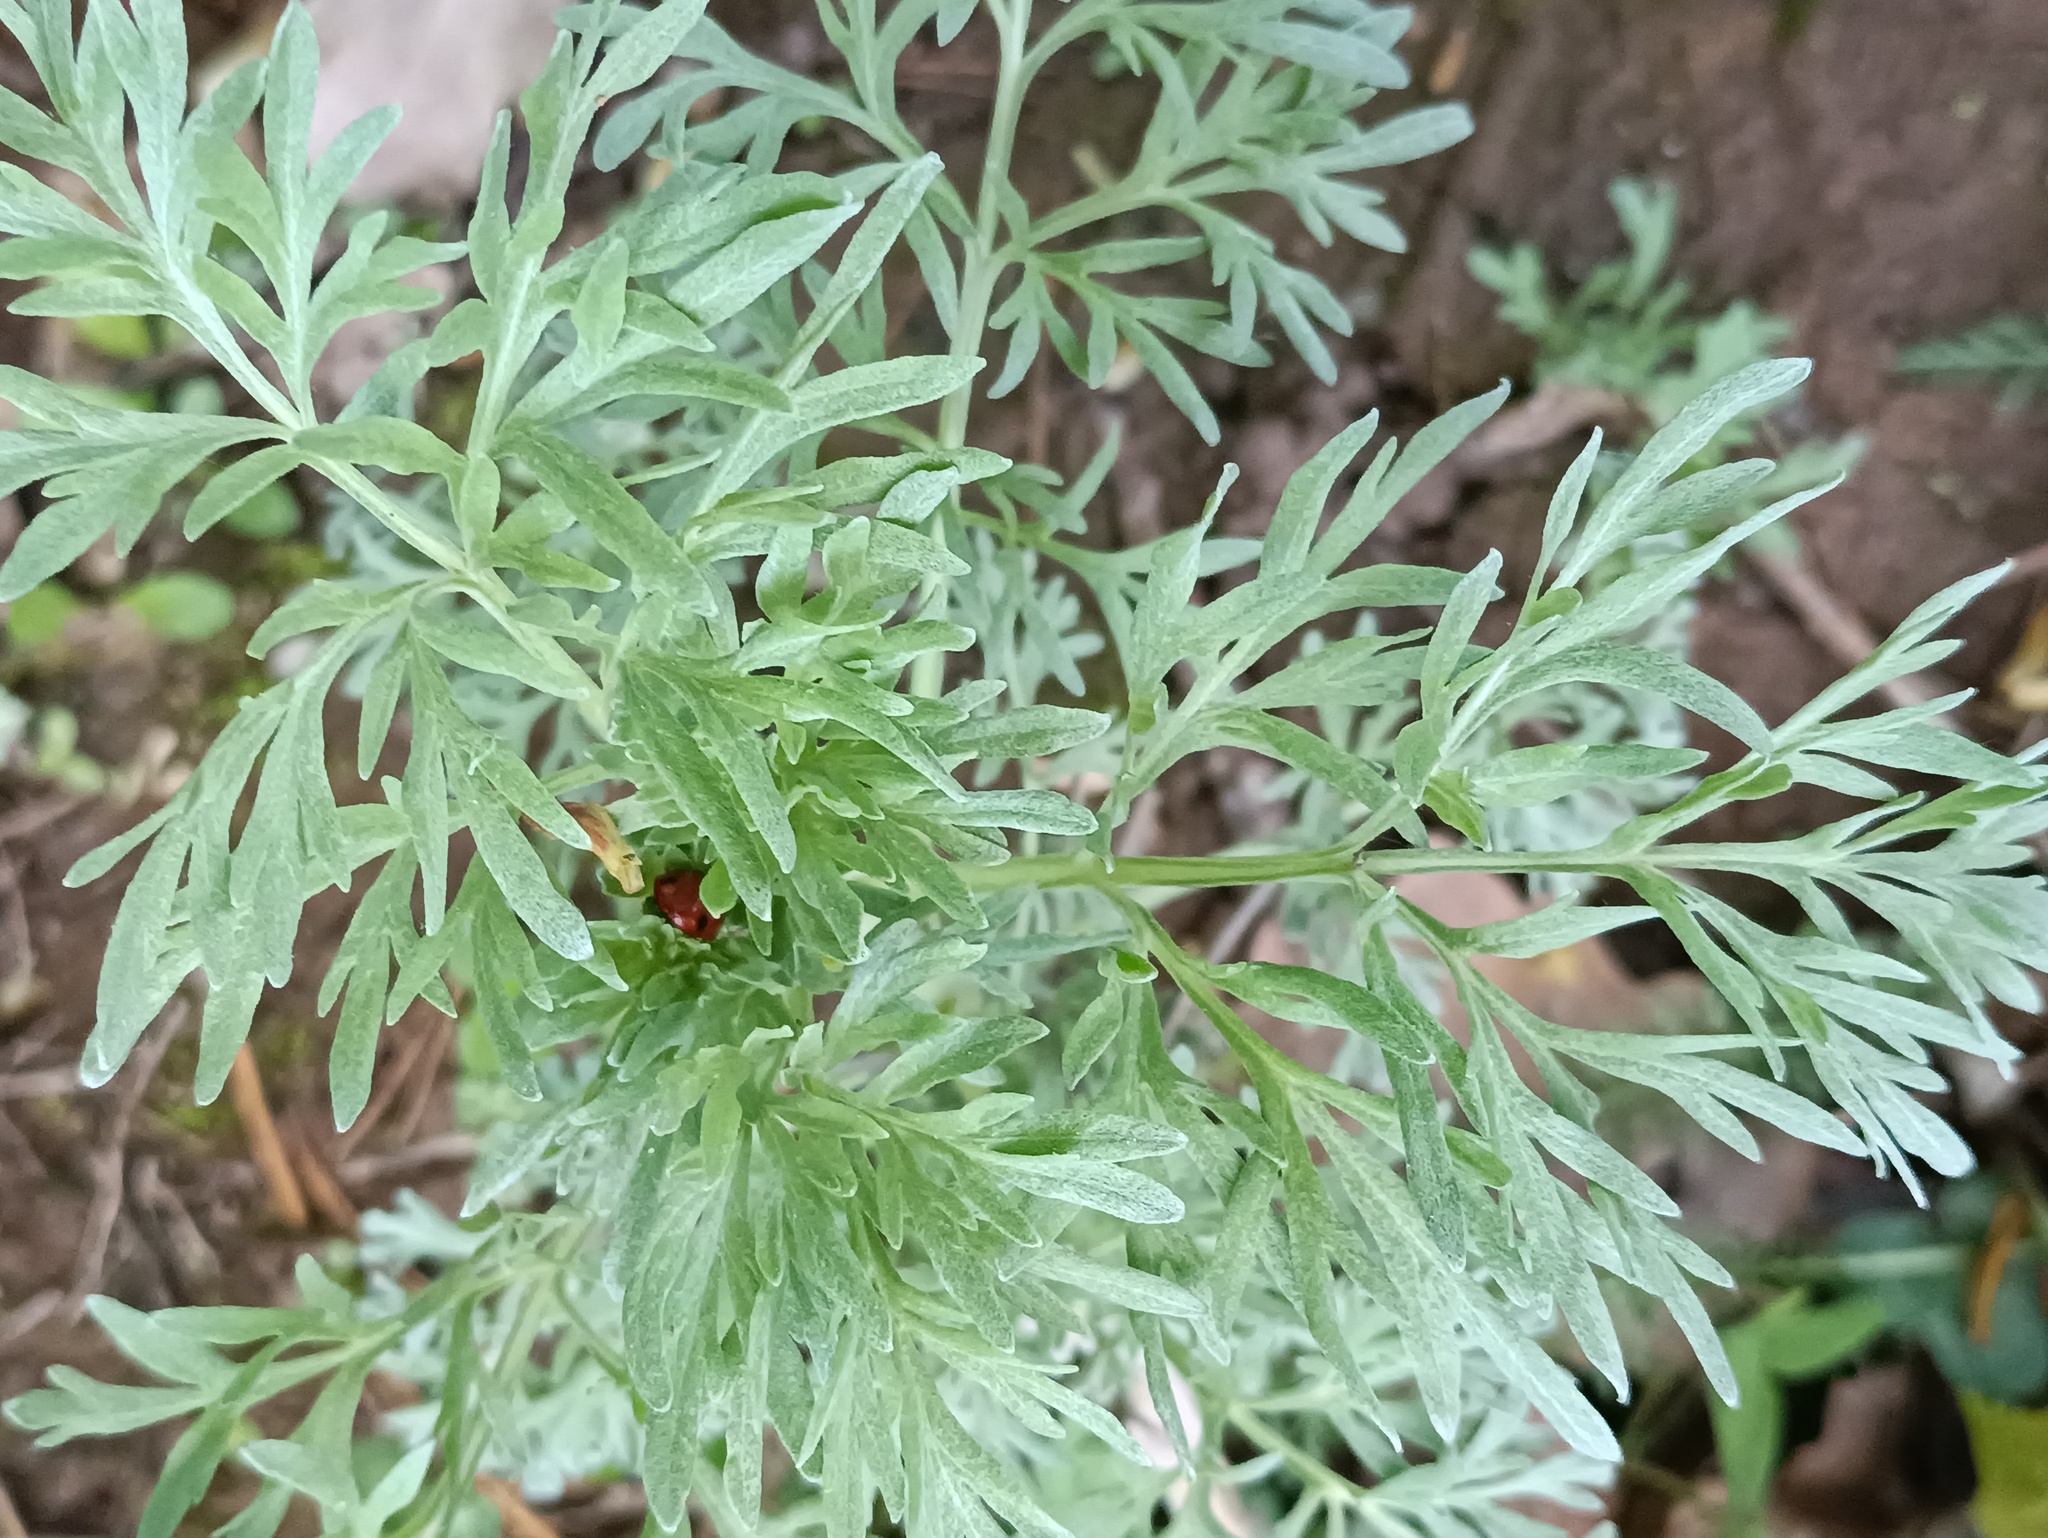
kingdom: Plantae
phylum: Tracheophyta
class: Magnoliopsida
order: Asterales
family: Asteraceae
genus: Artemisia
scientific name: Artemisia absinthium
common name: Wormwood
